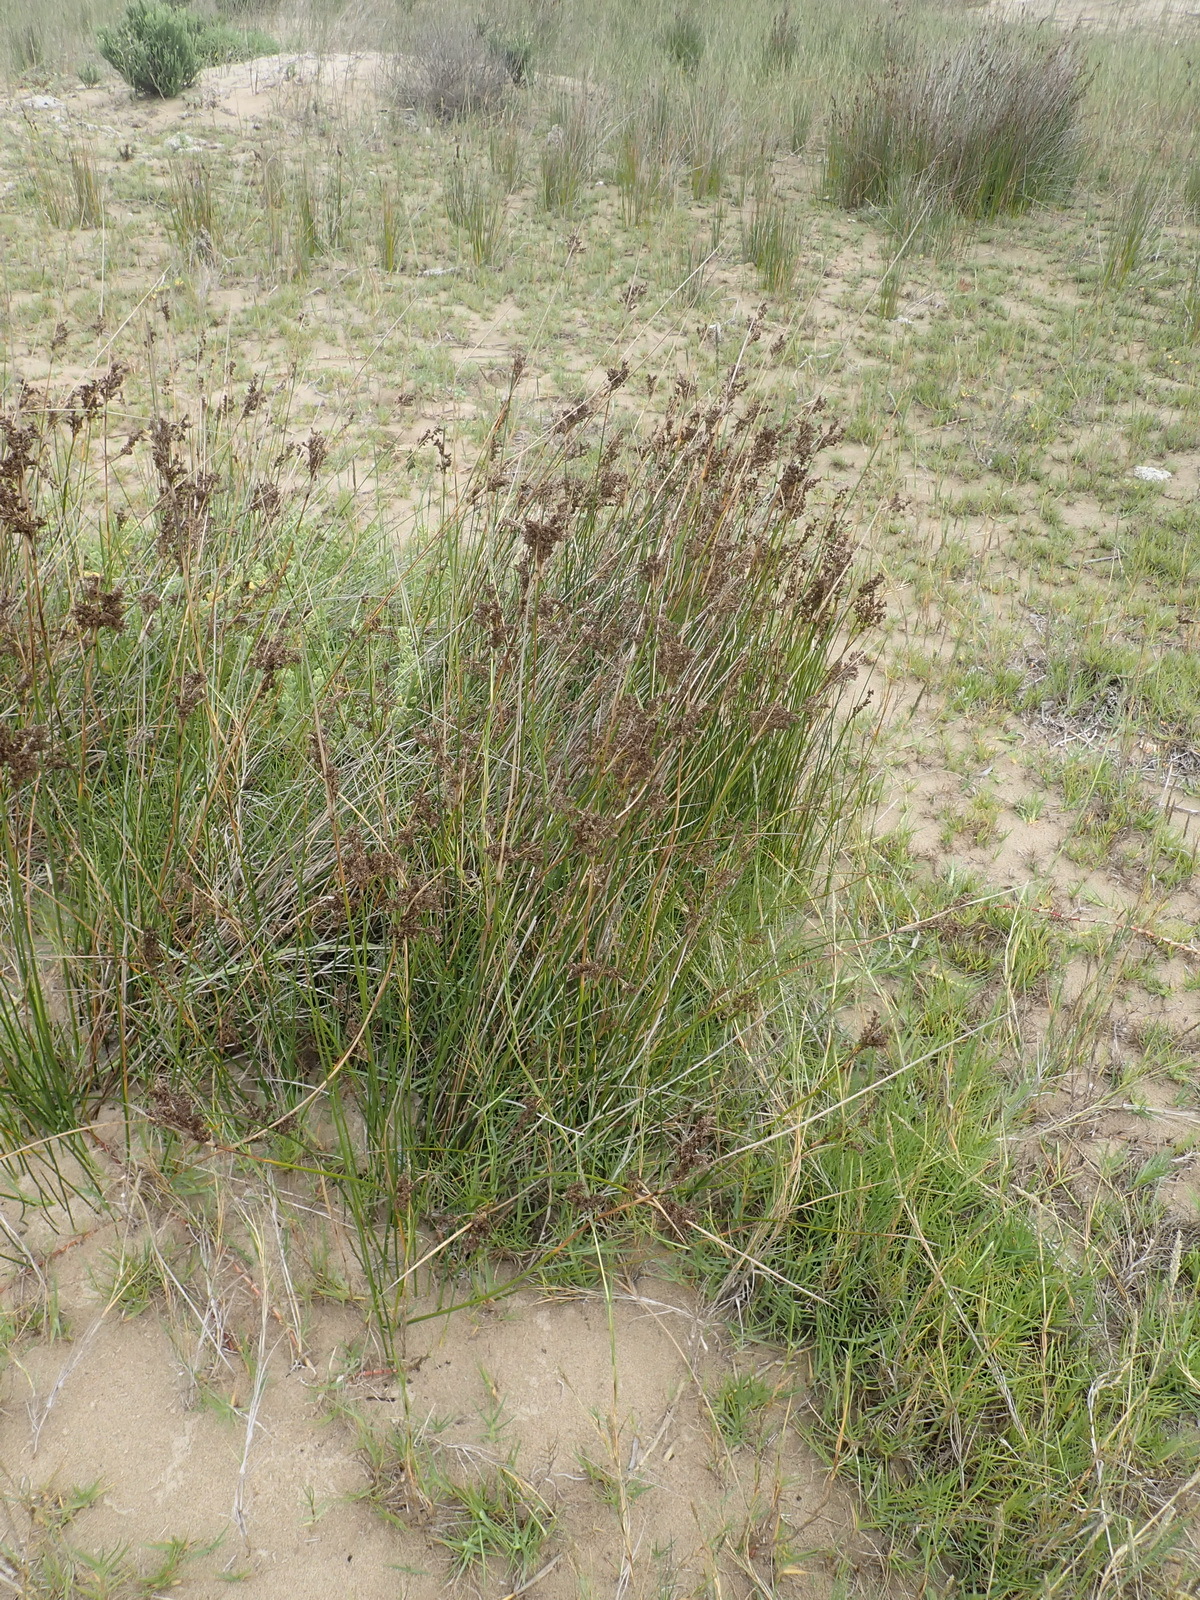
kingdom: Plantae
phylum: Tracheophyta
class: Liliopsida
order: Poales
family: Juncaceae
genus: Juncus
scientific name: Juncus kraussii
